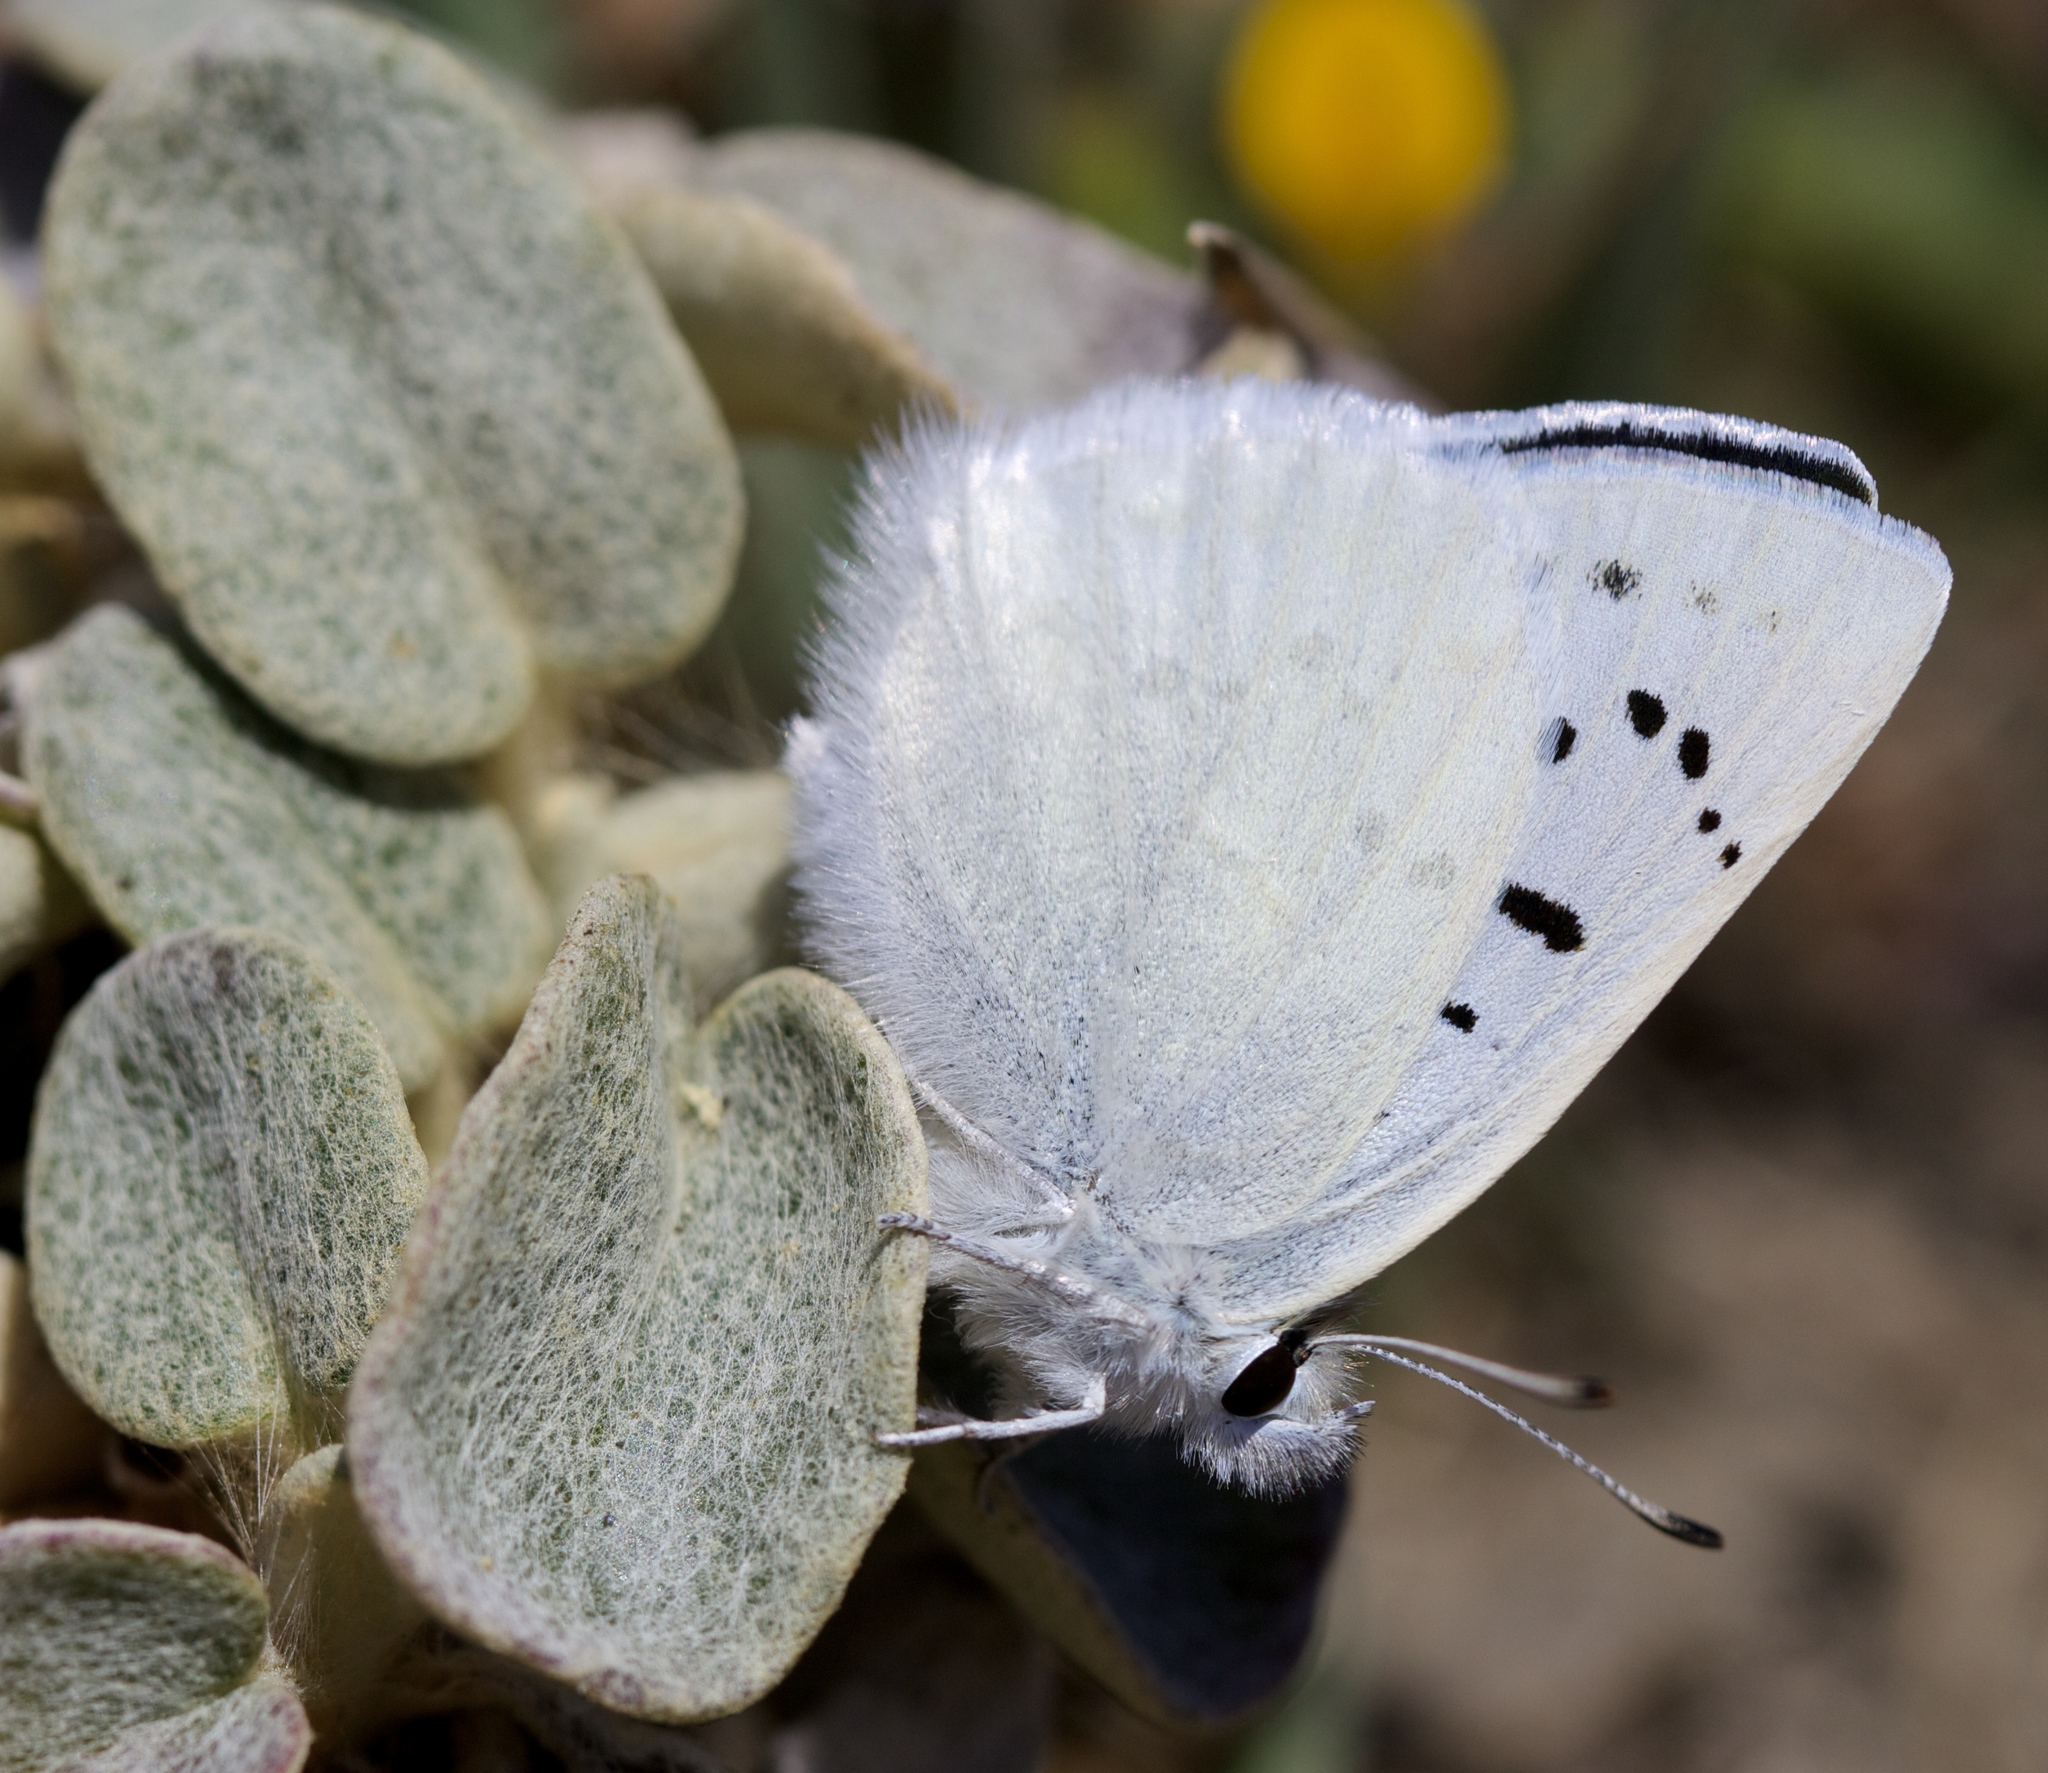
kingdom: Animalia
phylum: Arthropoda
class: Insecta
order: Lepidoptera
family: Lycaenidae
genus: Tharsalea
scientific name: Tharsalea heteronea
